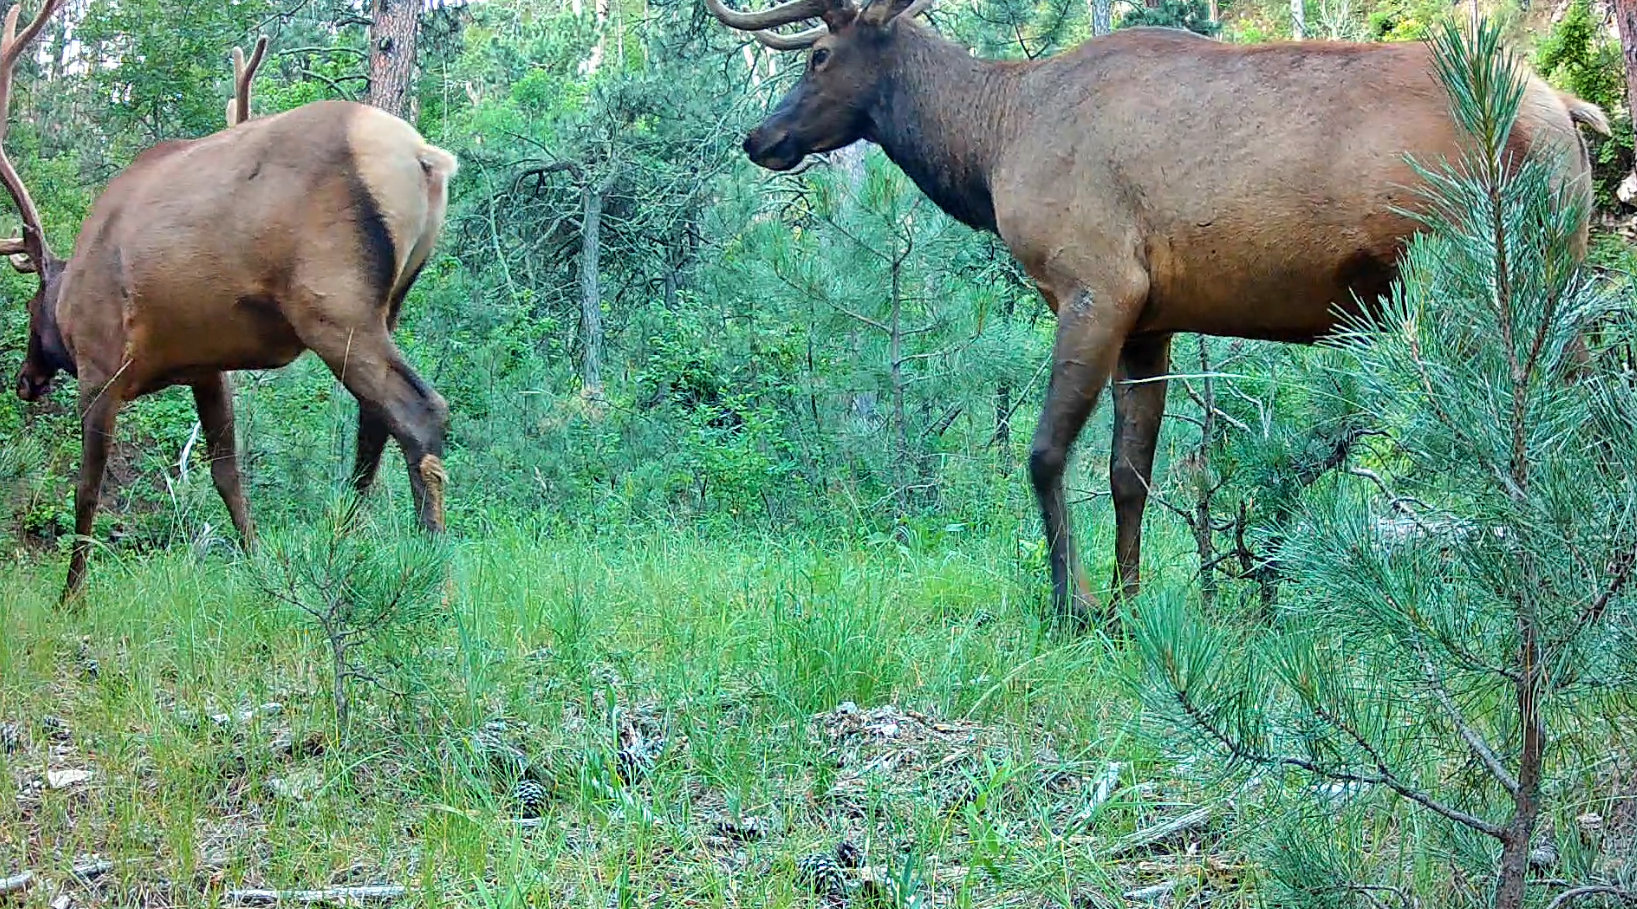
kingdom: Animalia
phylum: Chordata
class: Mammalia
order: Artiodactyla
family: Cervidae
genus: Cervus
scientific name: Cervus elaphus
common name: Red deer
